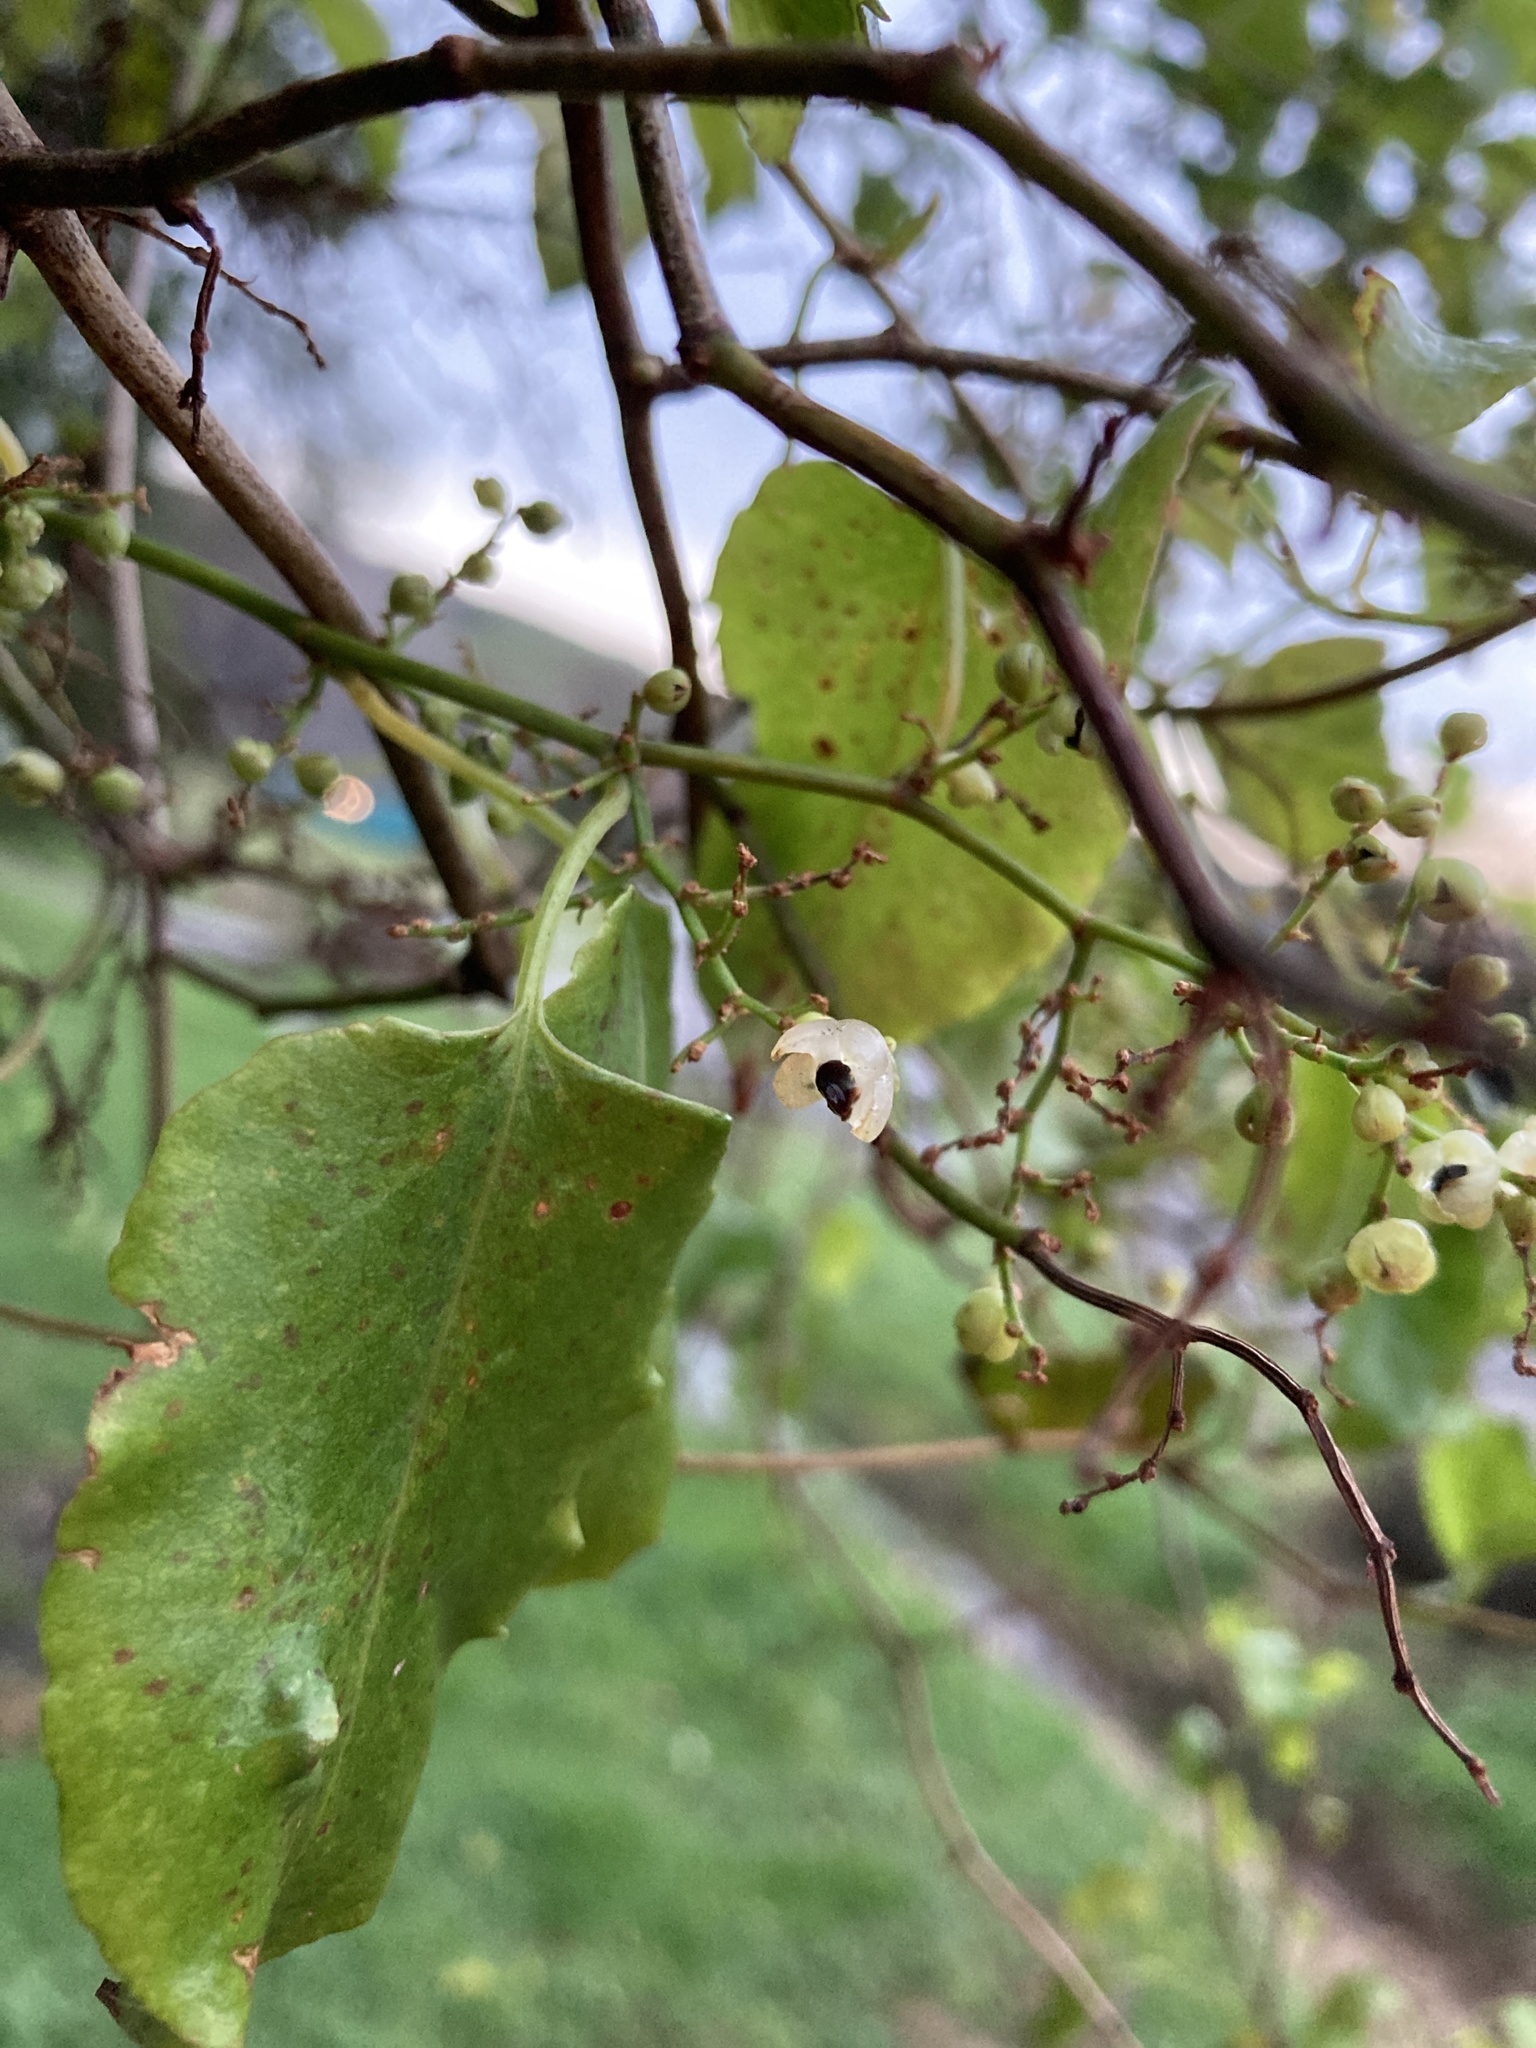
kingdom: Plantae
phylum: Tracheophyta
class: Magnoliopsida
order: Caryophyllales
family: Polygonaceae
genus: Muehlenbeckia
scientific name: Muehlenbeckia australis
